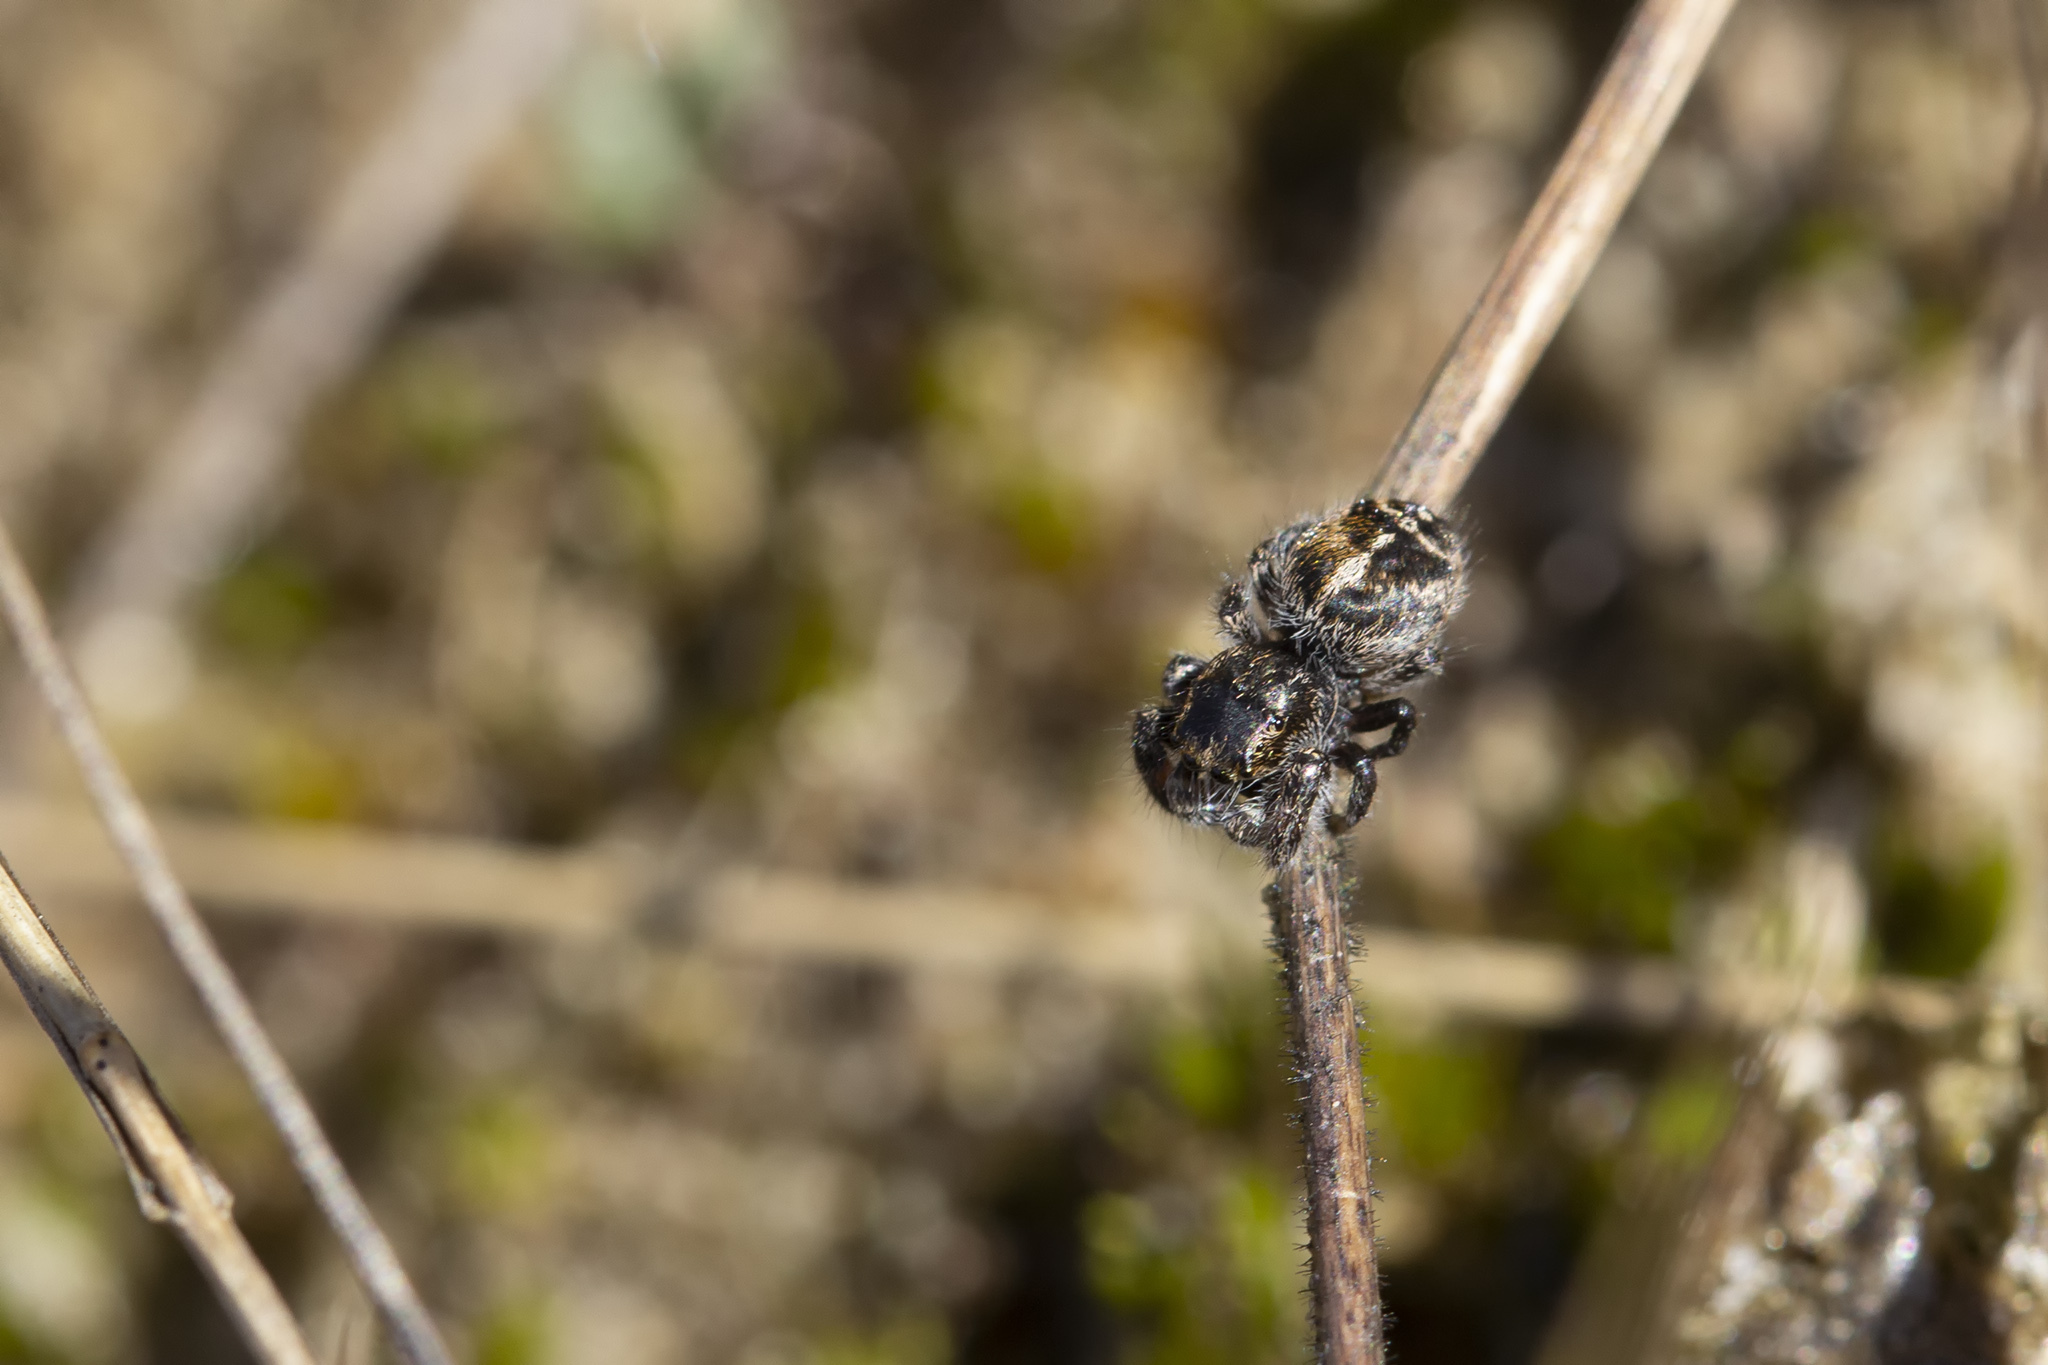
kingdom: Animalia
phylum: Arthropoda
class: Arachnida
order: Araneae
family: Salticidae
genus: Pellenes
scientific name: Pellenes tripunctatus
